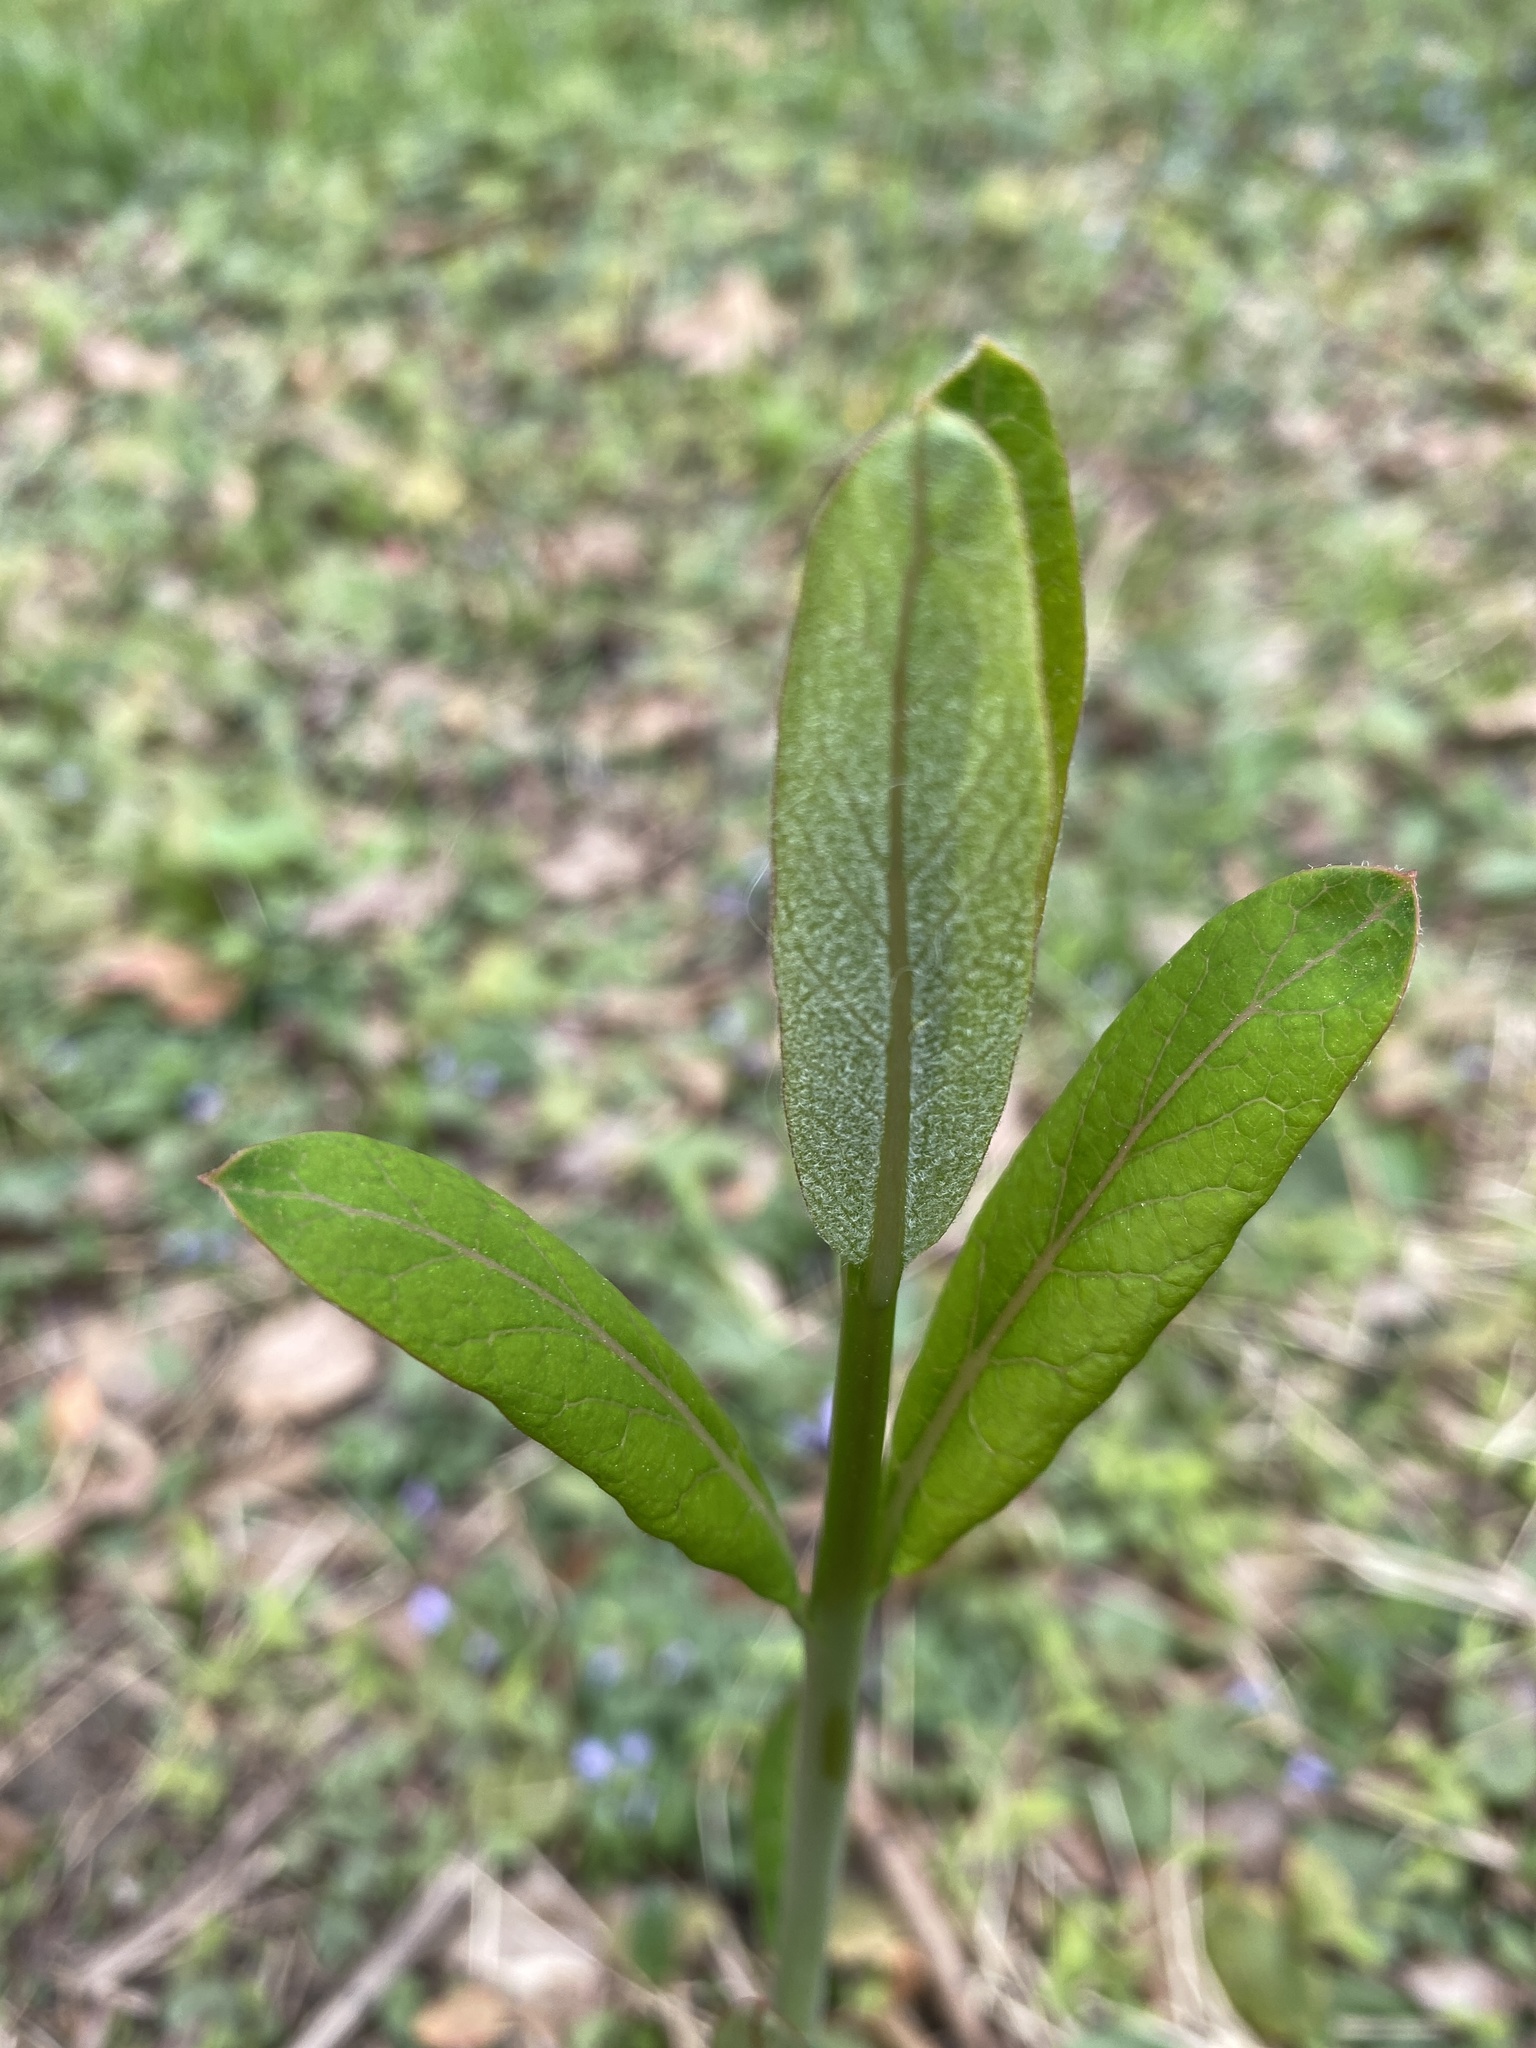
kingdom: Plantae
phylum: Tracheophyta
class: Magnoliopsida
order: Gentianales
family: Apocynaceae
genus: Apocynum
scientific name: Apocynum cannabinum
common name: Hemp dogbane
